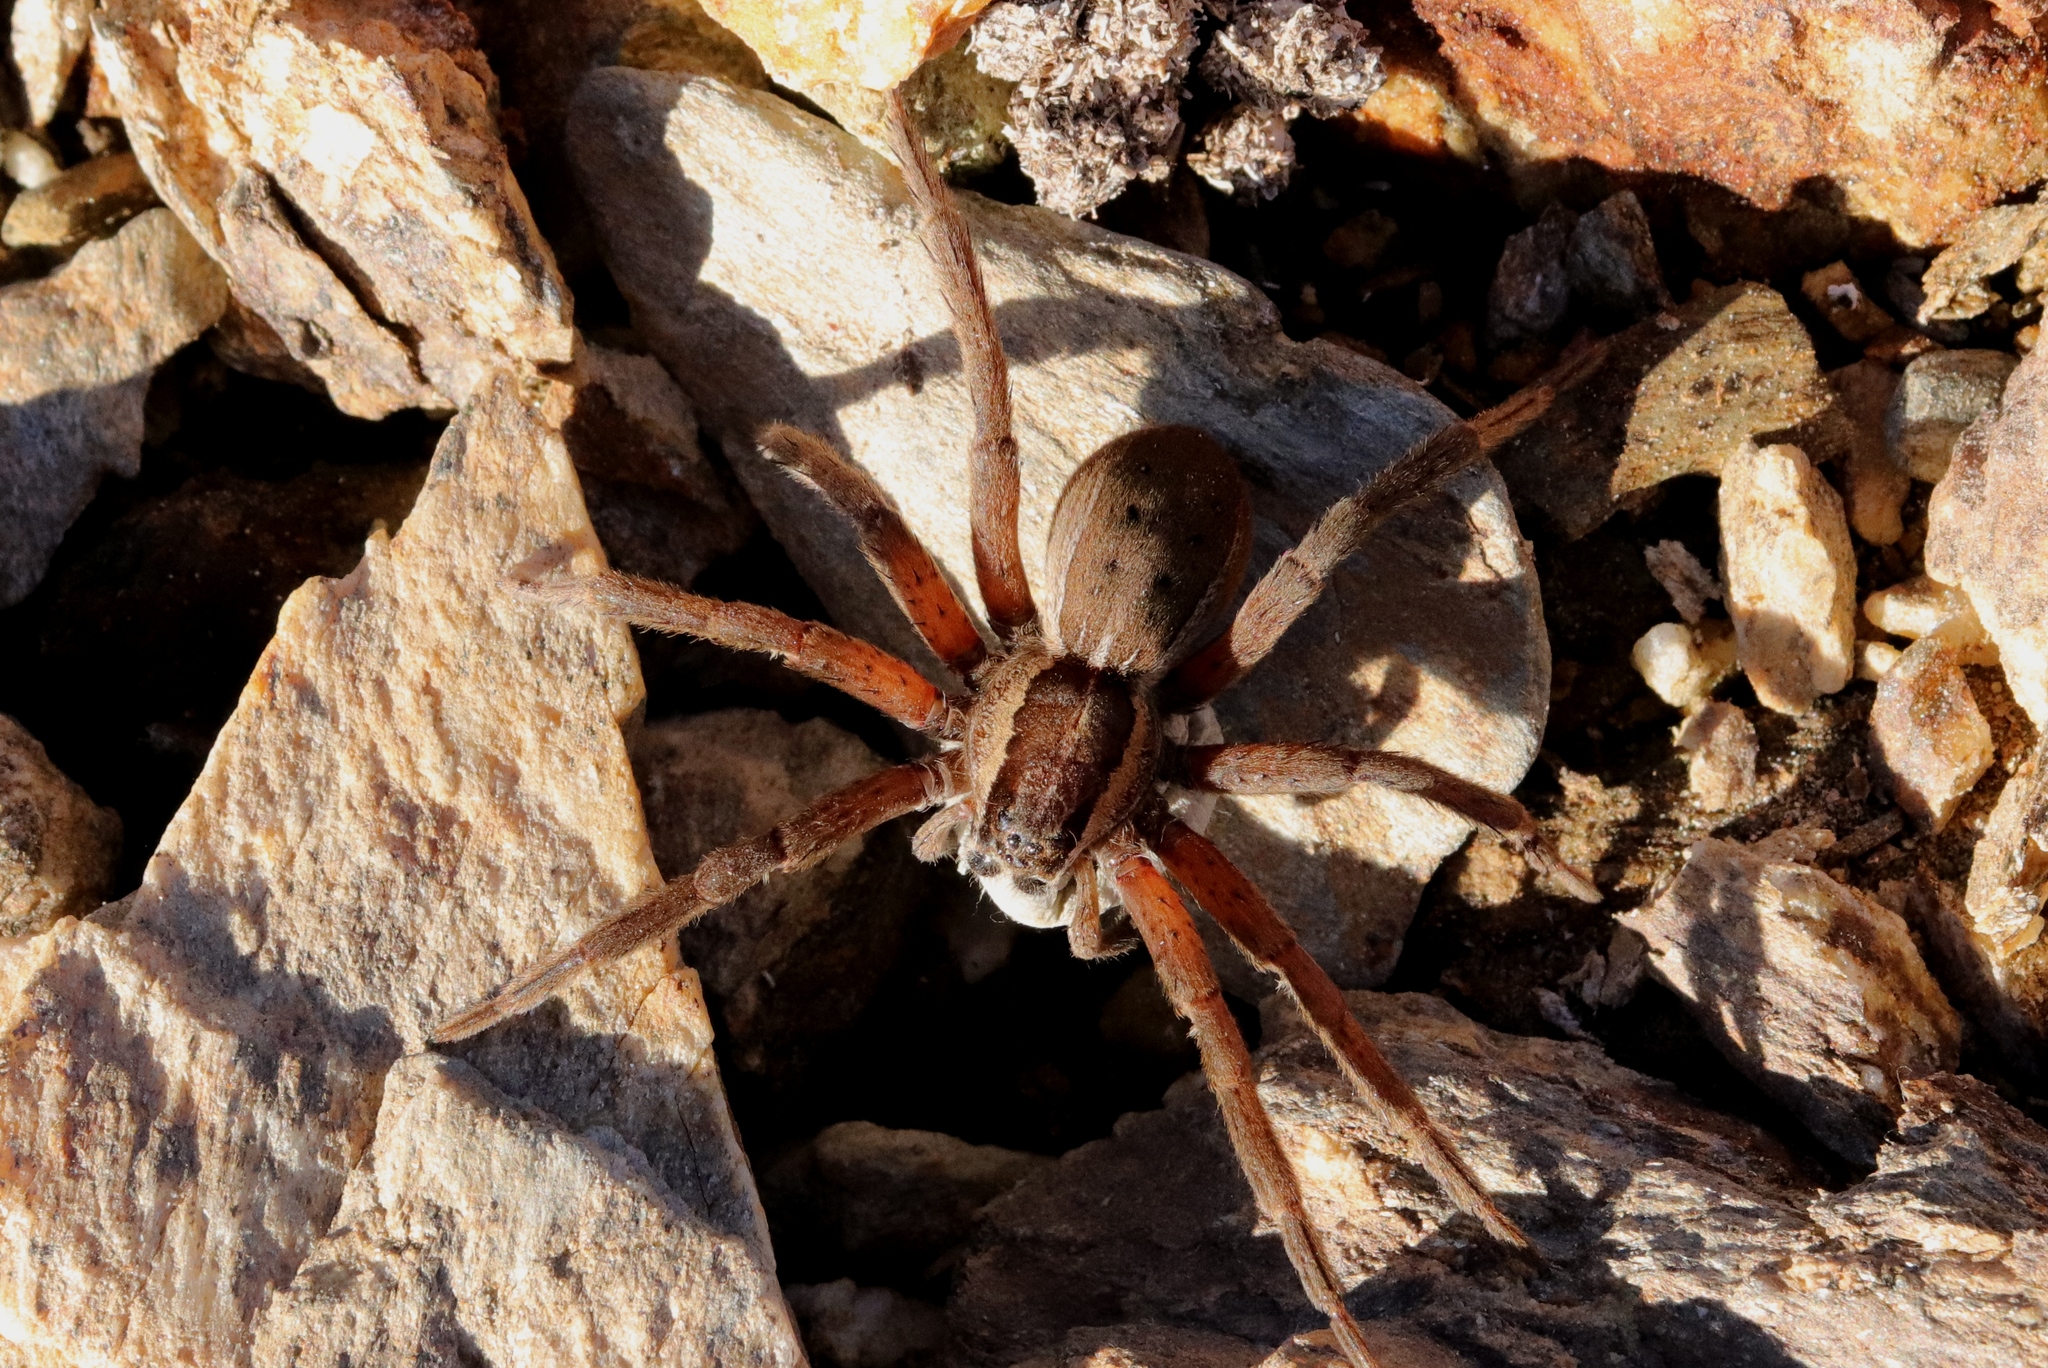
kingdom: Animalia
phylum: Arthropoda
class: Arachnida
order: Araneae
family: Pisauridae
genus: Dolomedes
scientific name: Dolomedes minor
